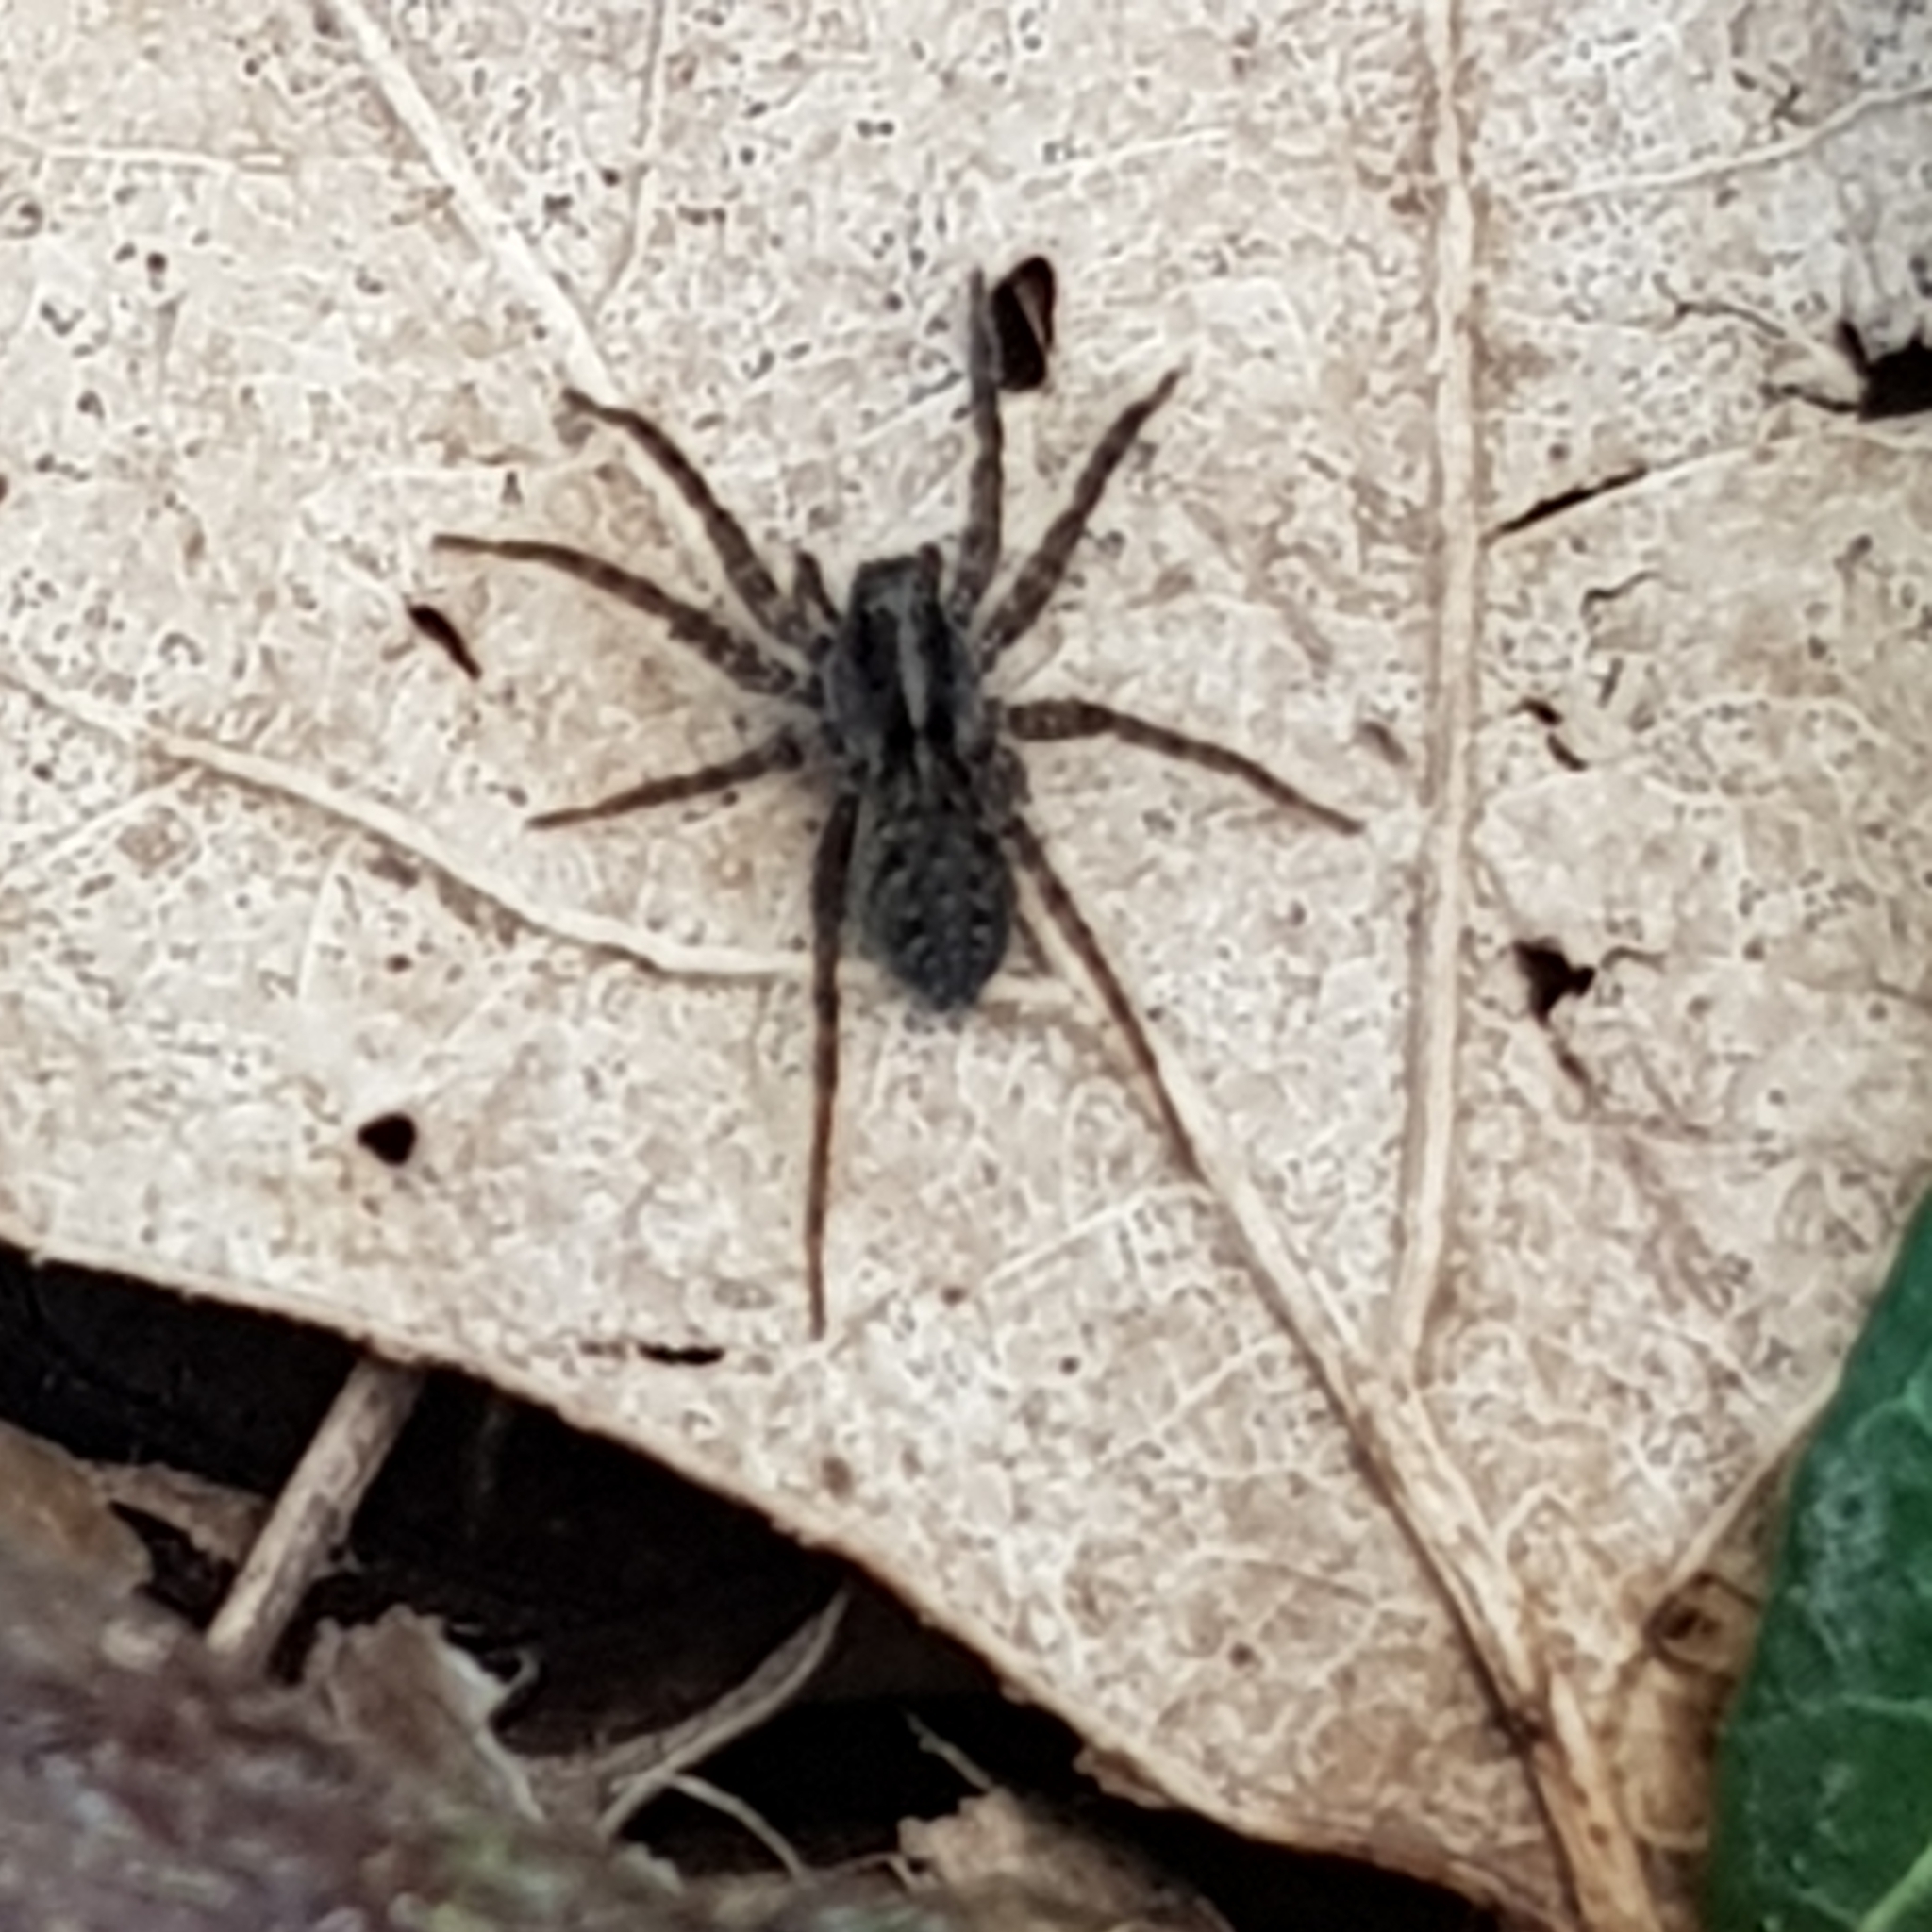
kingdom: Animalia
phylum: Arthropoda
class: Arachnida
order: Araneae
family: Lycosidae
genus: Pardosa
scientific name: Pardosa amentata
